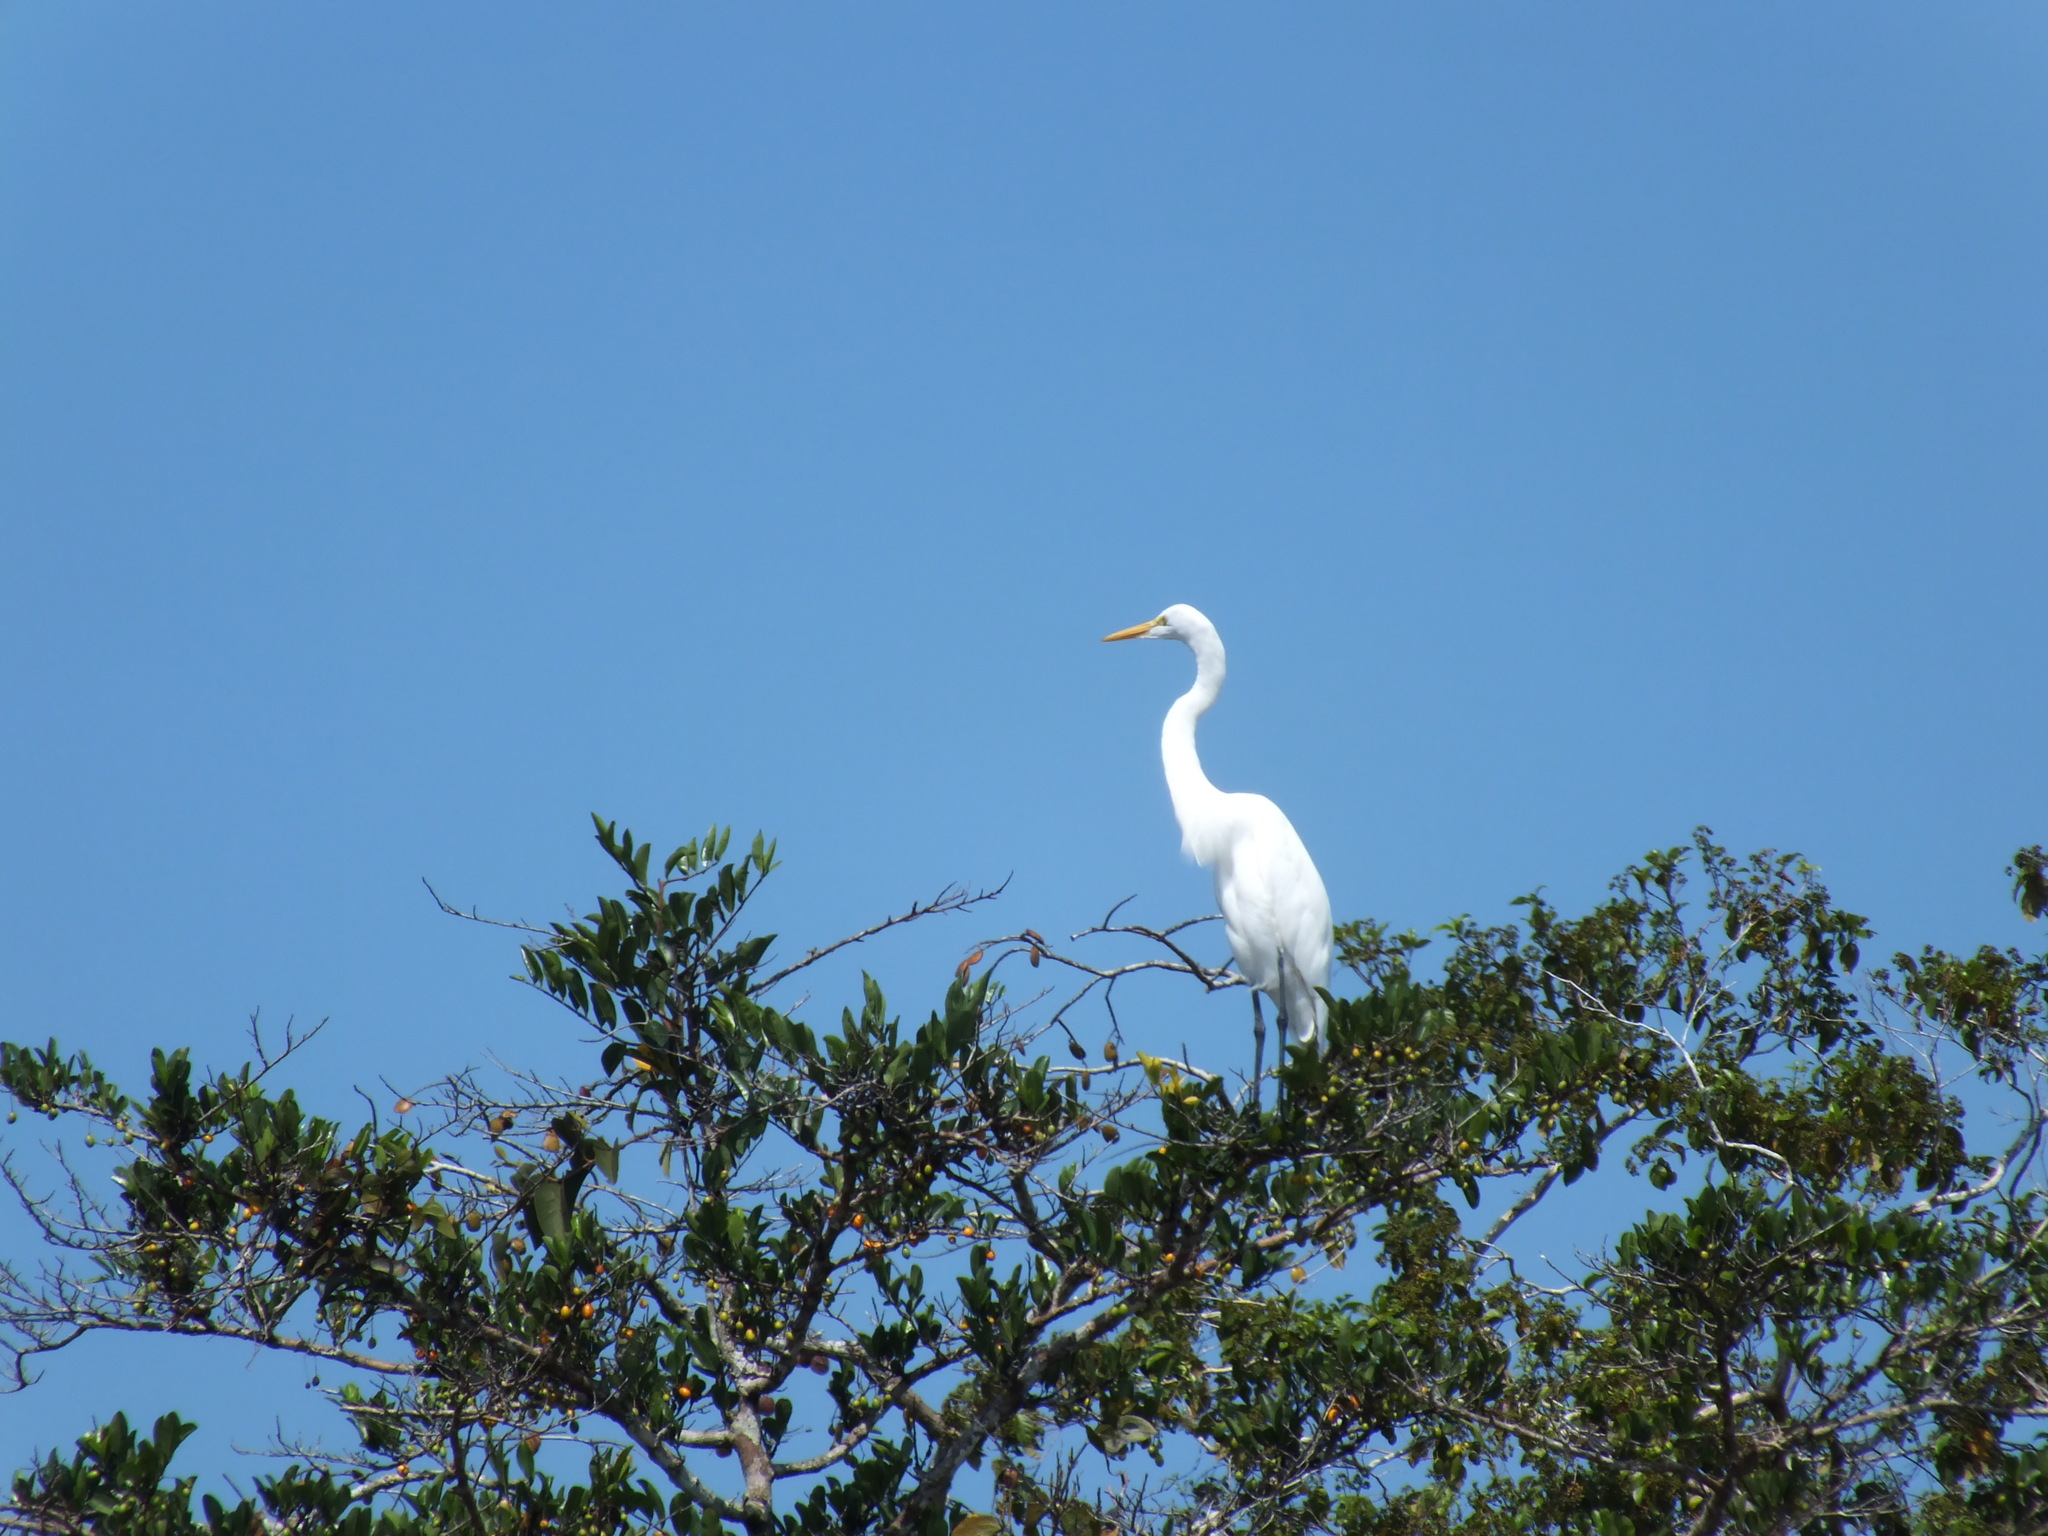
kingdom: Animalia
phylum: Chordata
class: Aves
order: Pelecaniformes
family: Ardeidae
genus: Ardea
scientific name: Ardea alba
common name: Great egret
